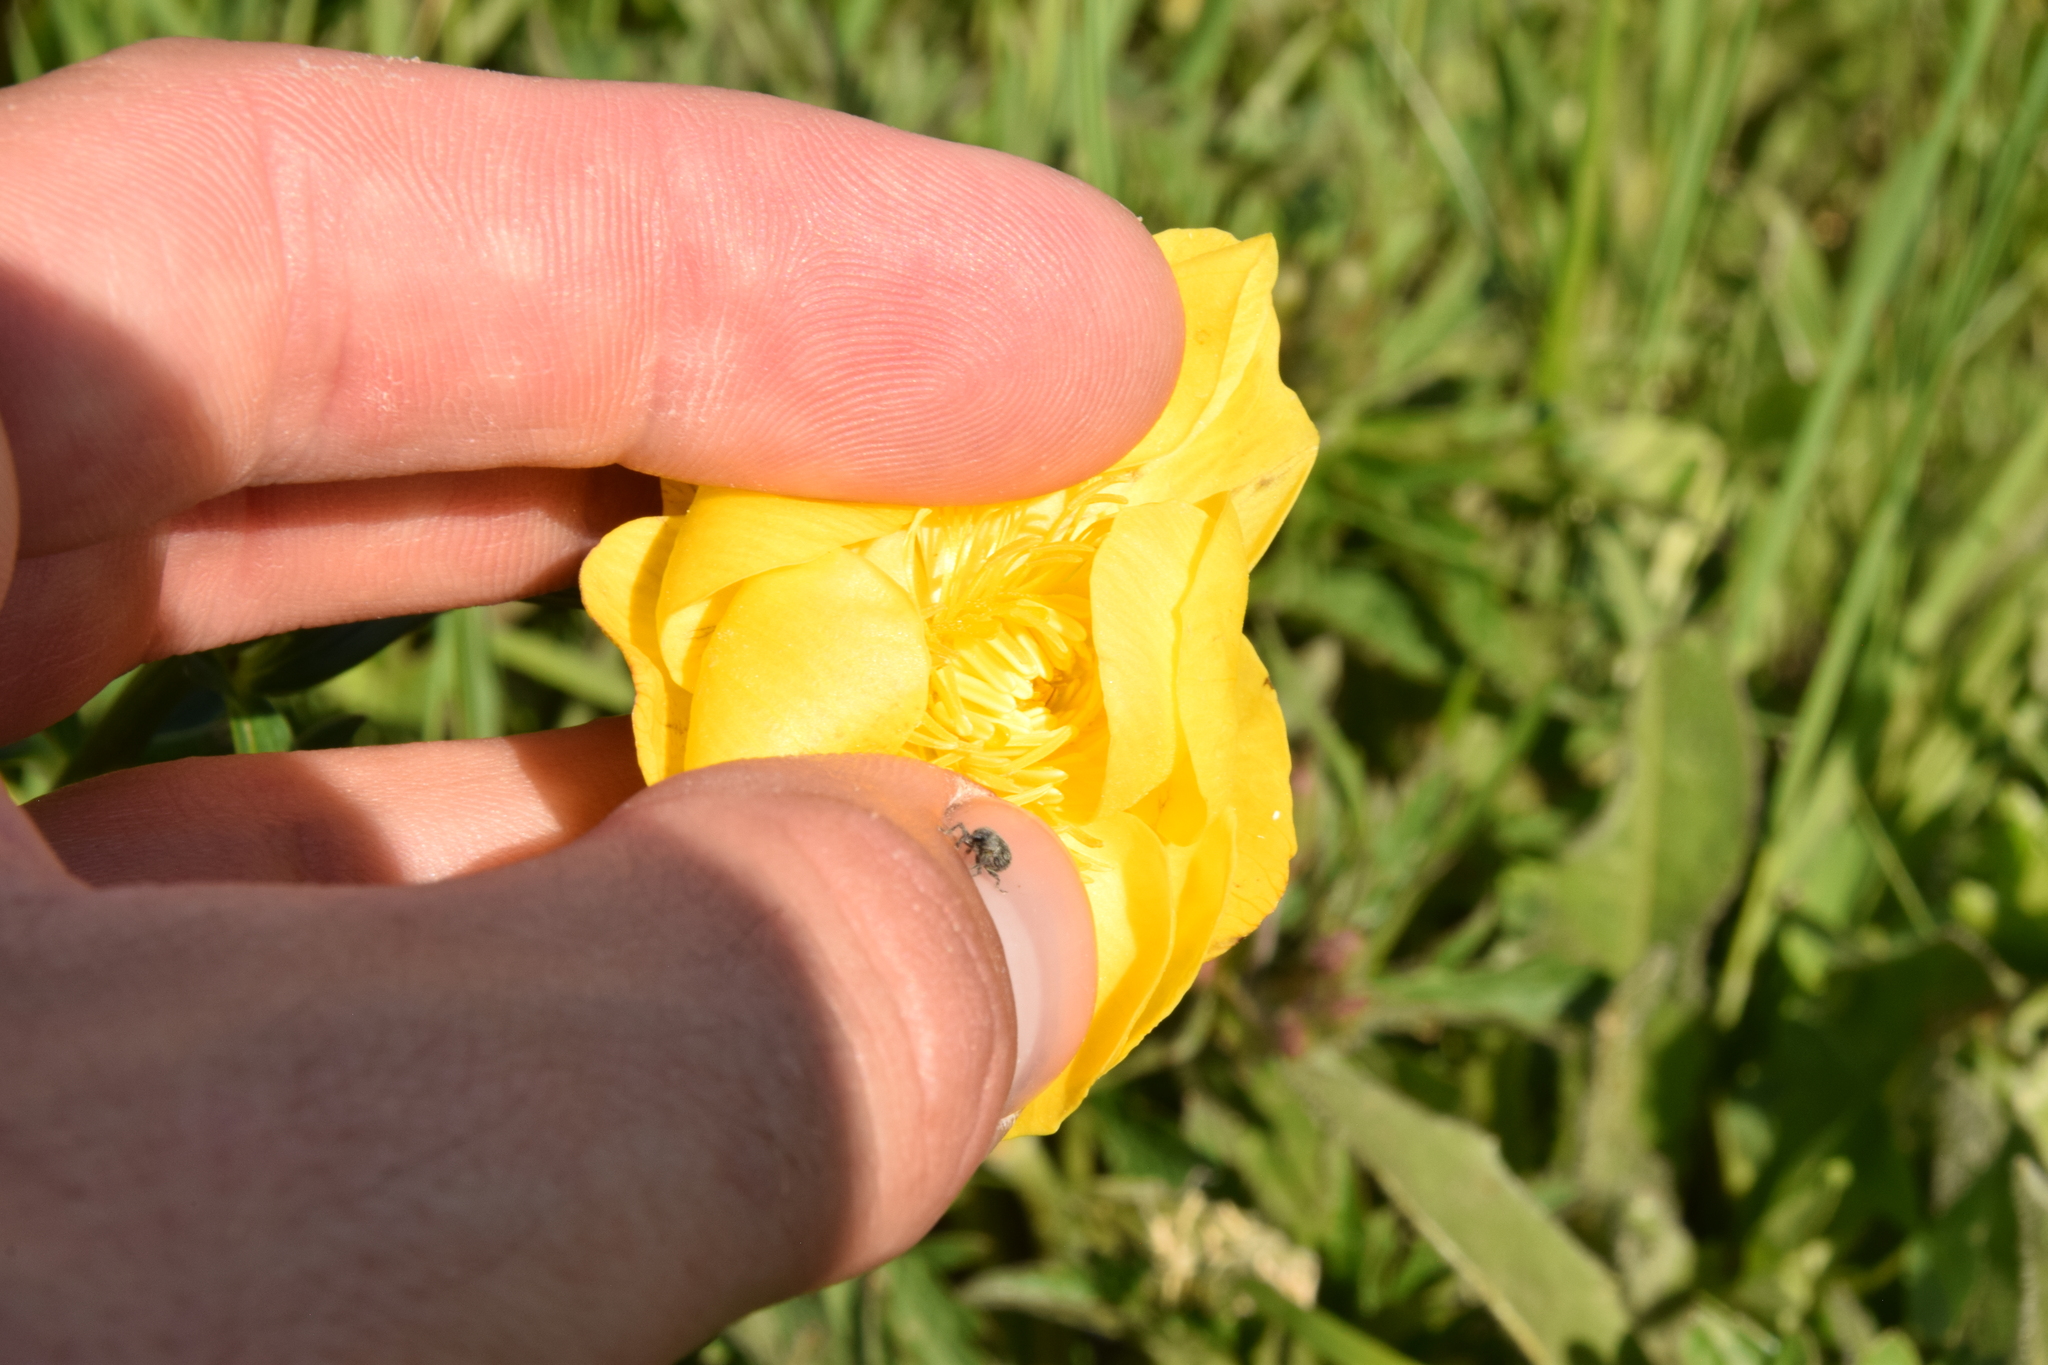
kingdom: Plantae
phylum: Tracheophyta
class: Magnoliopsida
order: Ranunculales
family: Ranunculaceae
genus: Trollius
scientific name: Trollius europaeus
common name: European globeflower
